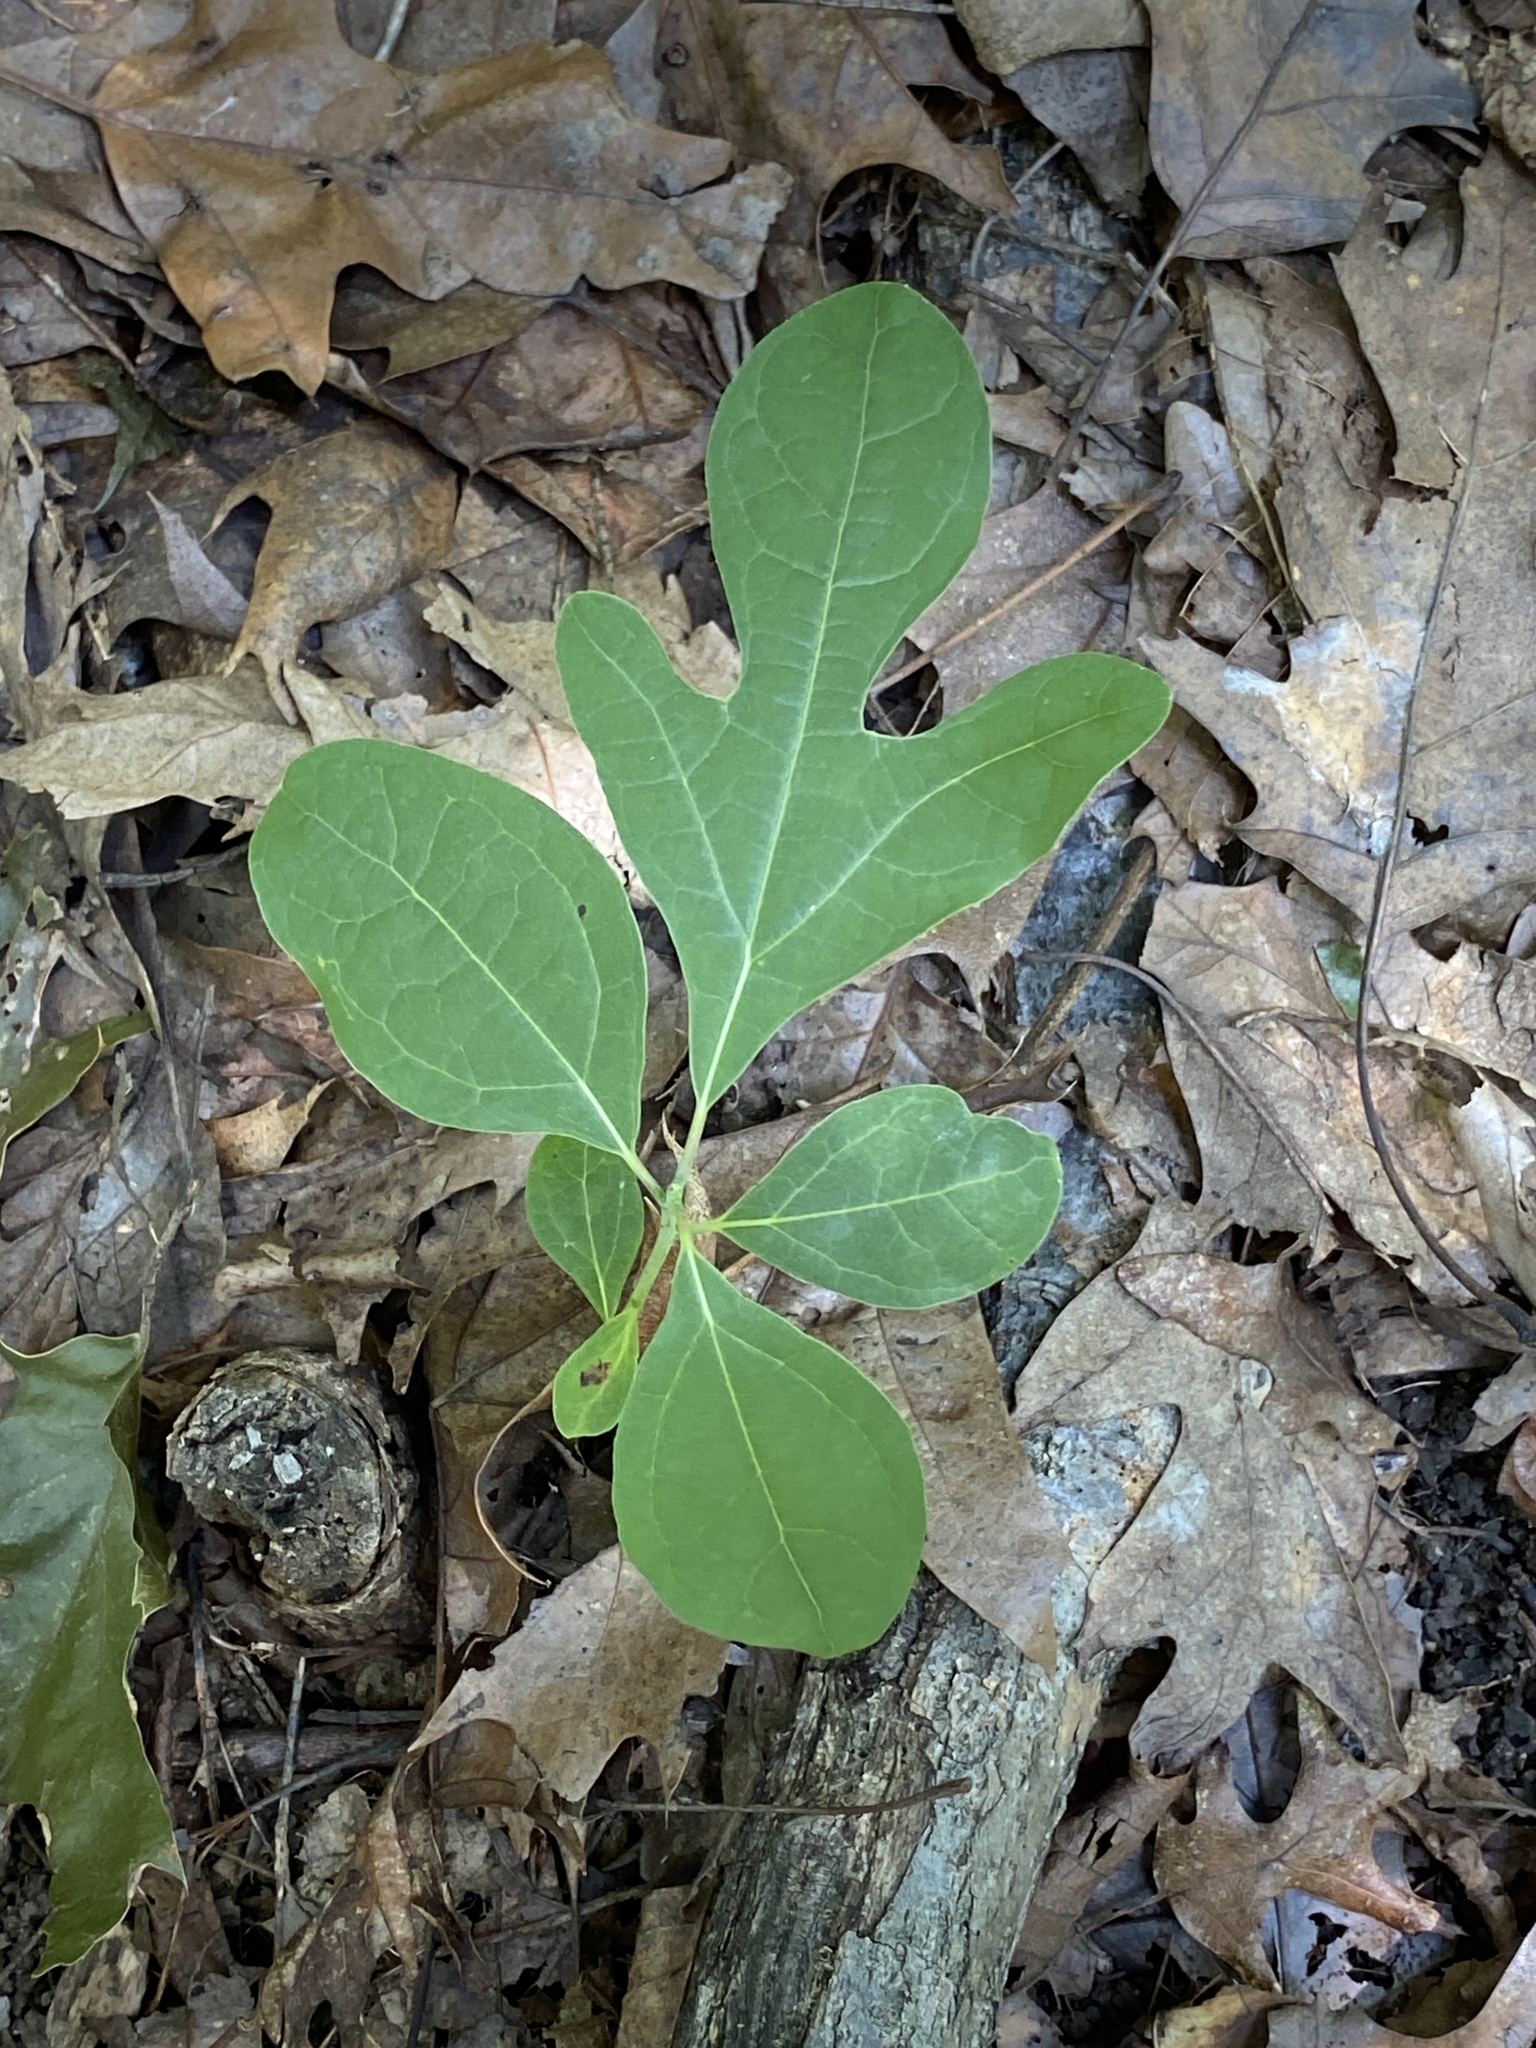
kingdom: Plantae
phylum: Tracheophyta
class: Magnoliopsida
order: Laurales
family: Lauraceae
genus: Sassafras
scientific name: Sassafras albidum
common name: Sassafras
